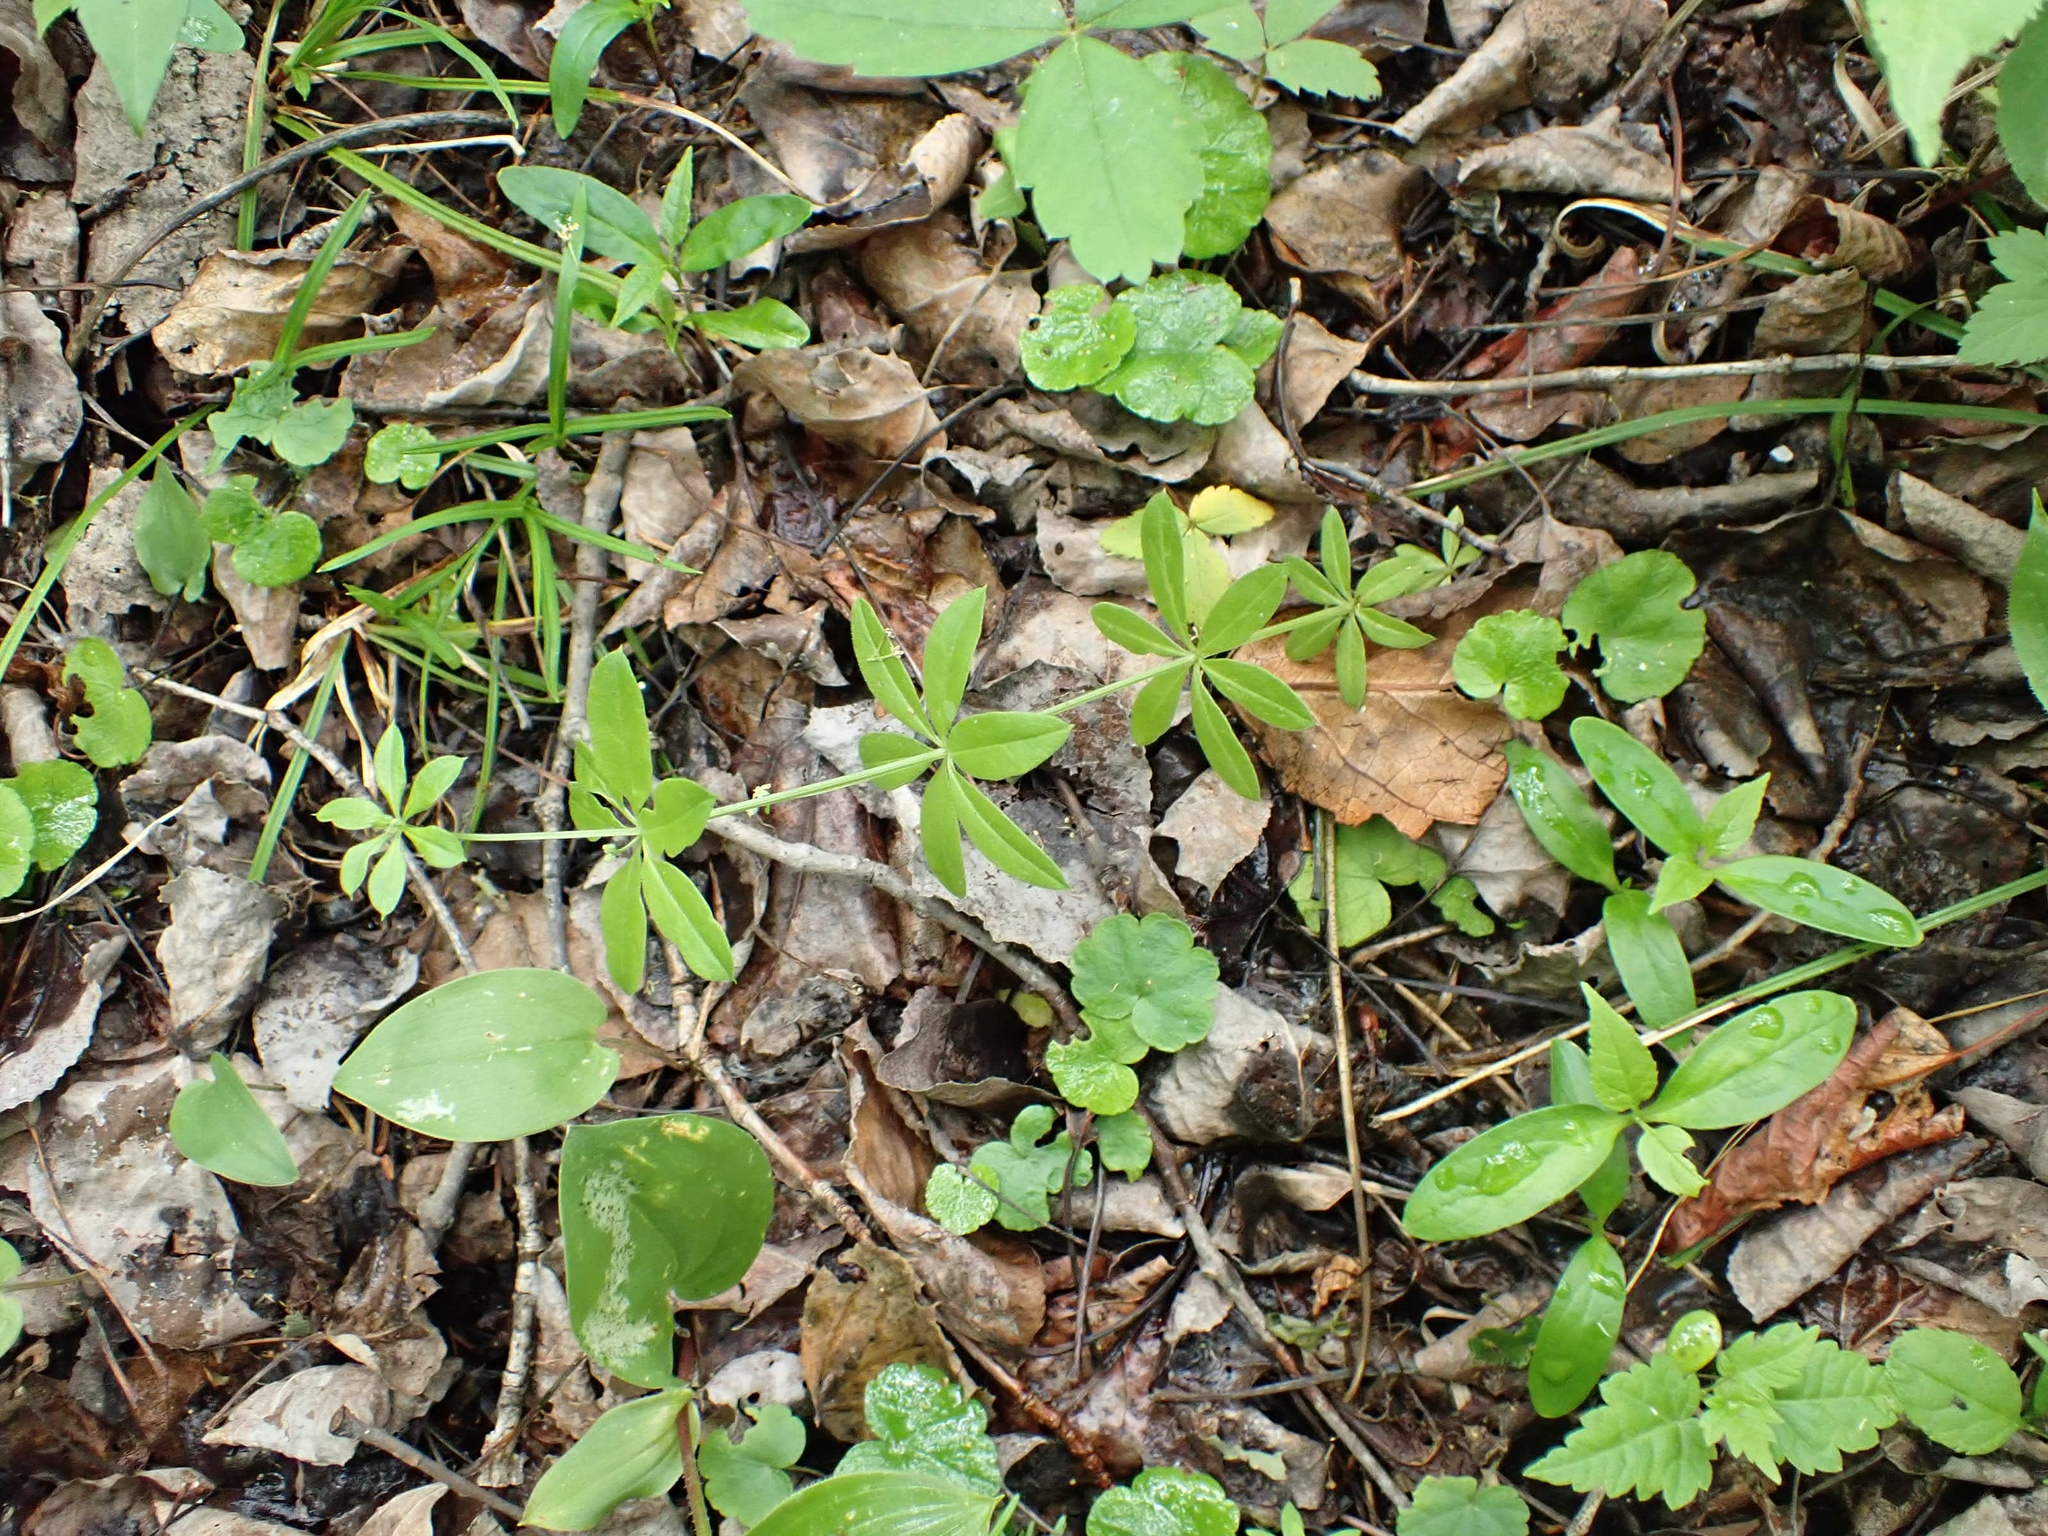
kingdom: Plantae
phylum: Tracheophyta
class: Magnoliopsida
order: Gentianales
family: Rubiaceae
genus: Galium
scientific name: Galium triflorum
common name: Fragrant bedstraw
